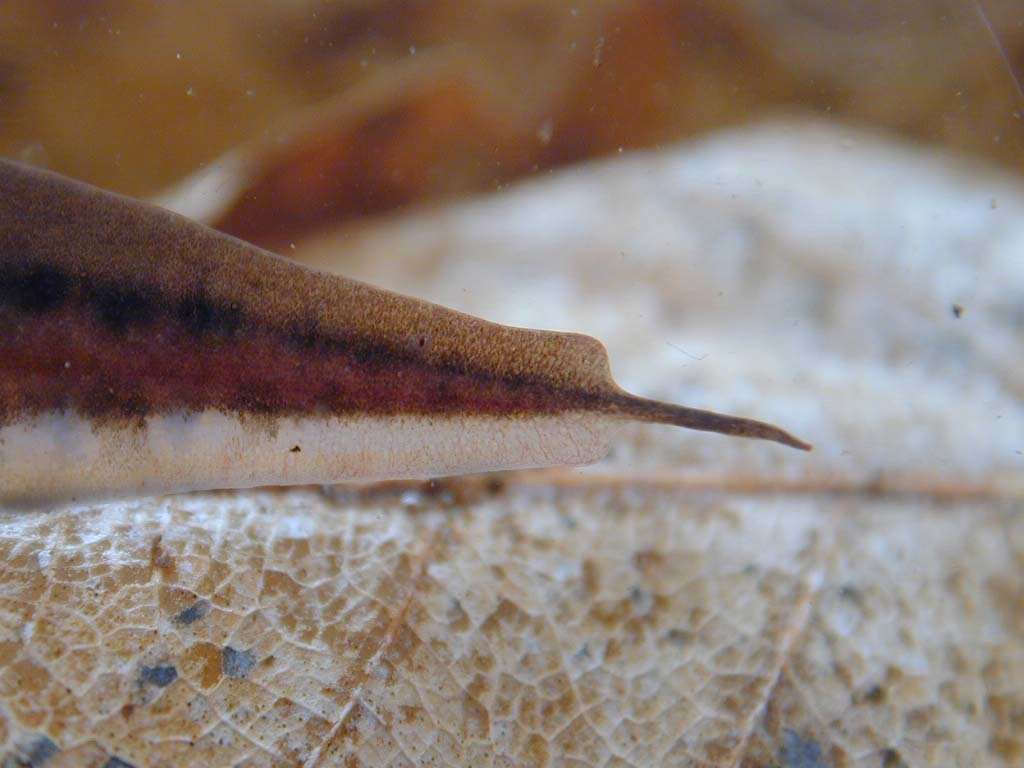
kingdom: Animalia
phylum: Chordata
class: Amphibia
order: Caudata
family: Salamandridae
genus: Lissotriton
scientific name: Lissotriton helveticus
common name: Palmate newt
